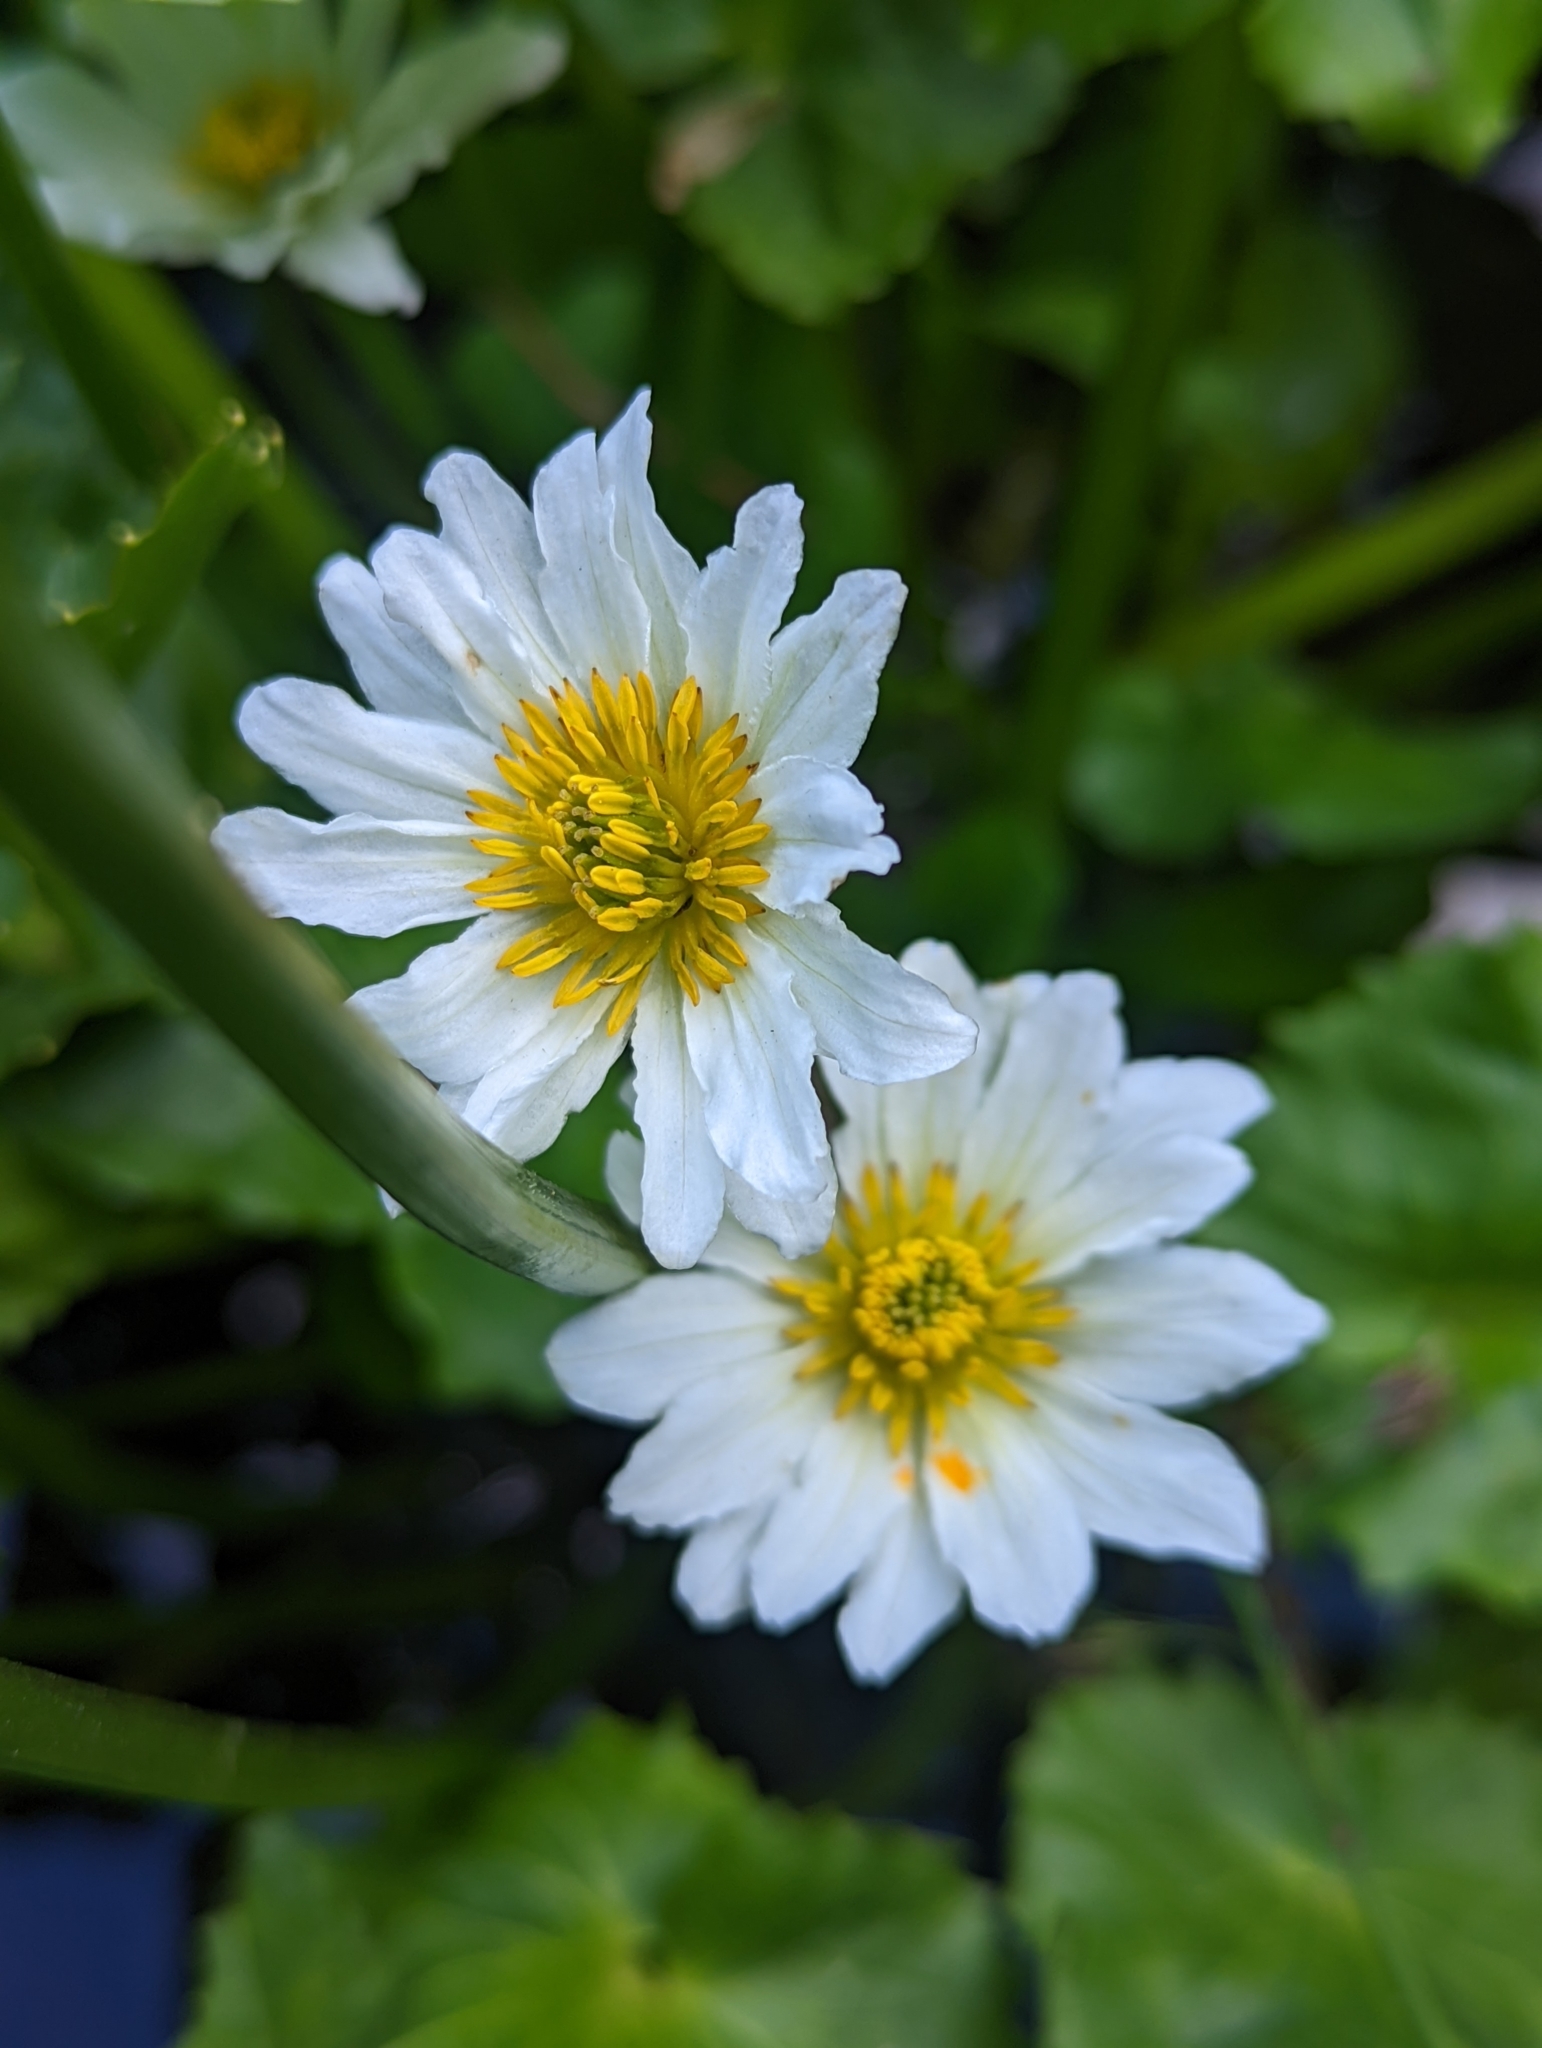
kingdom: Plantae
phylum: Tracheophyta
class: Magnoliopsida
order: Ranunculales
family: Ranunculaceae
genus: Caltha
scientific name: Caltha leptosepala
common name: Elkslip
